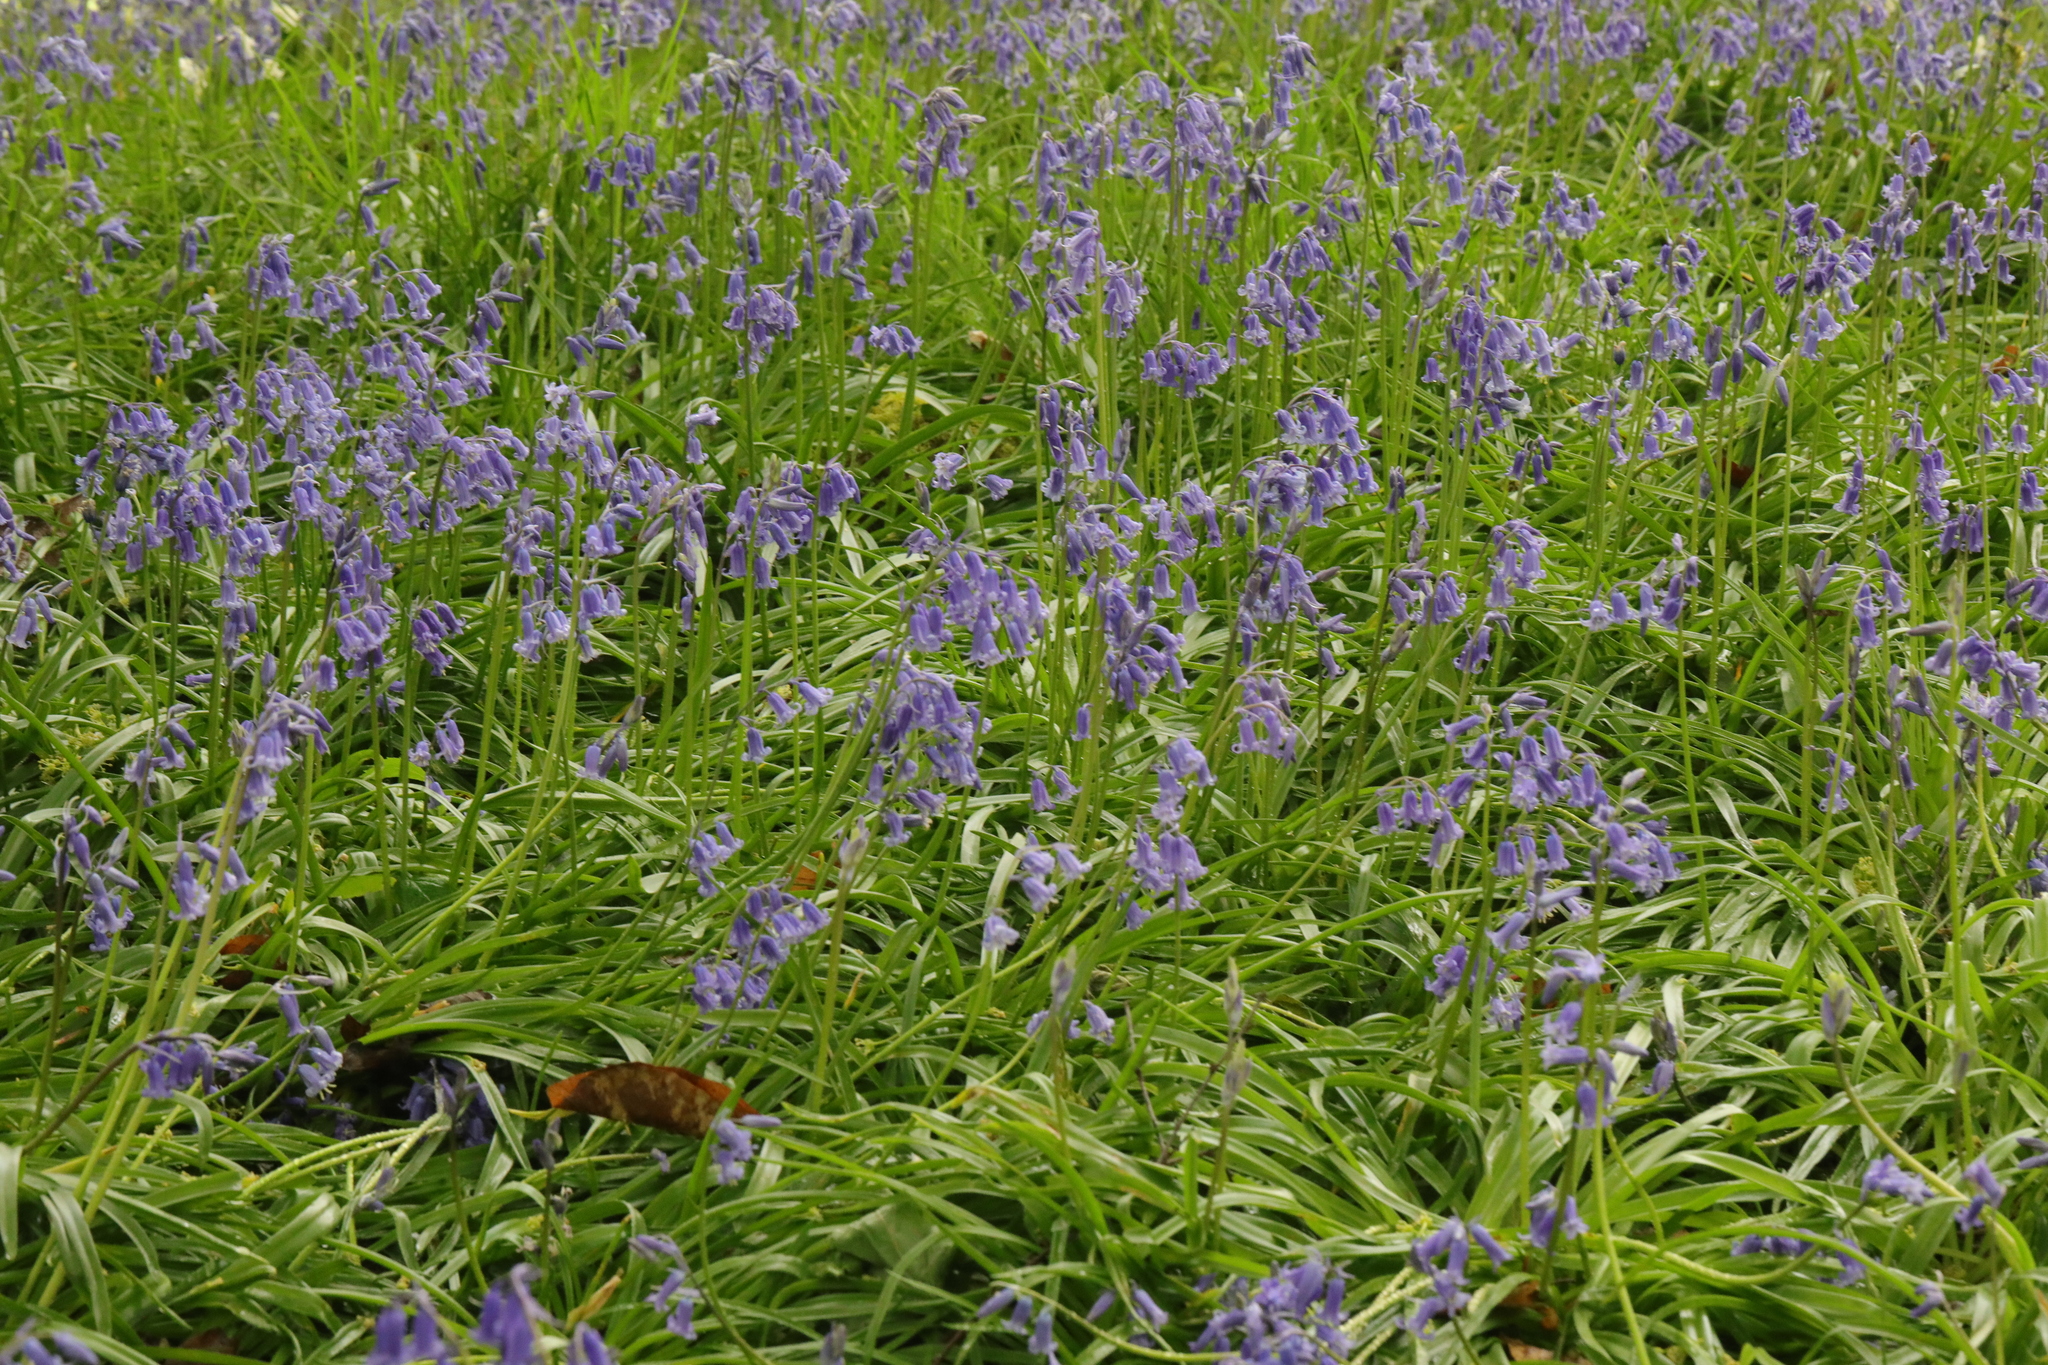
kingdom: Plantae
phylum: Tracheophyta
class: Liliopsida
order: Asparagales
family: Asparagaceae
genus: Hyacinthoides
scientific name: Hyacinthoides non-scripta
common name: Bluebell
